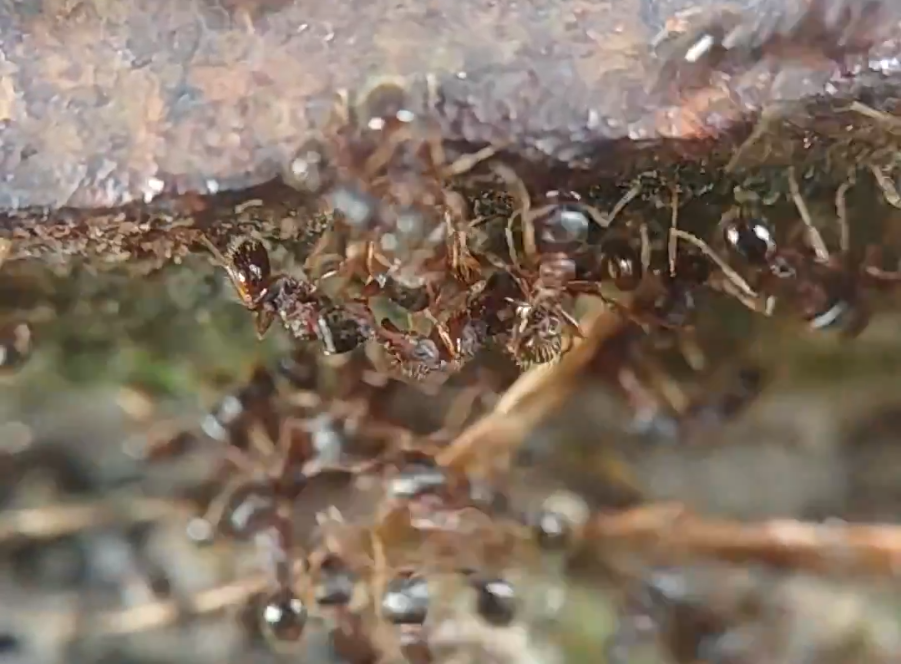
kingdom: Animalia
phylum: Arthropoda
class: Insecta
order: Hymenoptera
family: Formicidae
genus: Tetramorium
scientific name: Tetramorium immigrans
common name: Pavement ant
